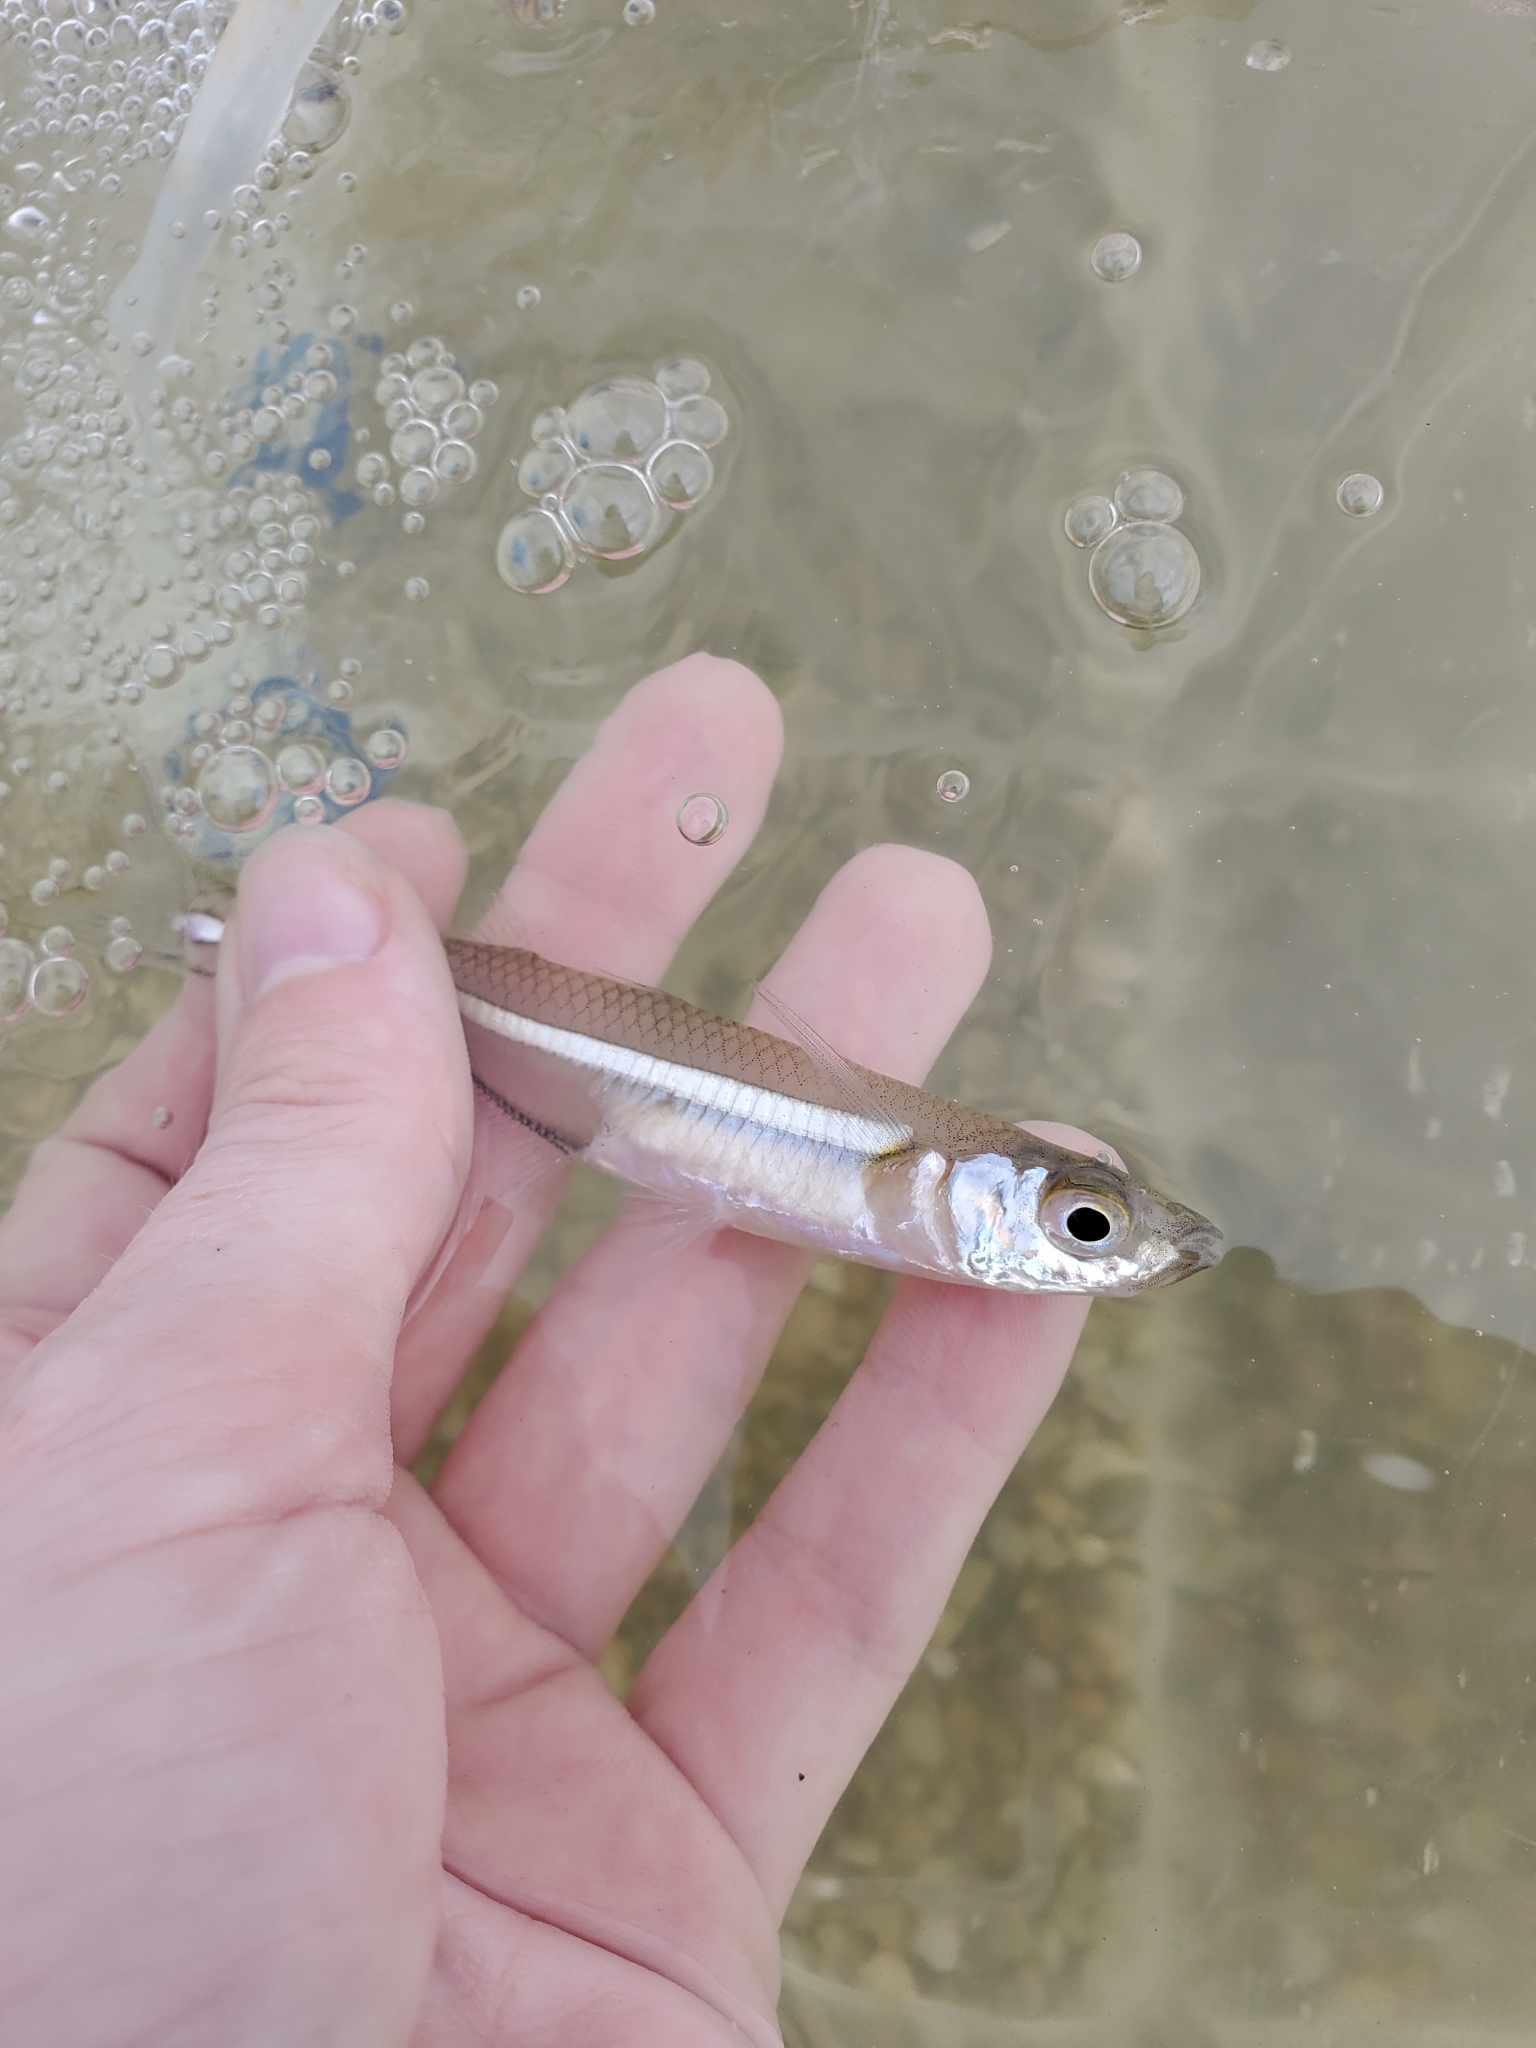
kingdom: Animalia
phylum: Chordata
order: Atheriniformes
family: Atherinopsidae
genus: Menidia
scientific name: Menidia menidia
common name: Atlantic silverside
